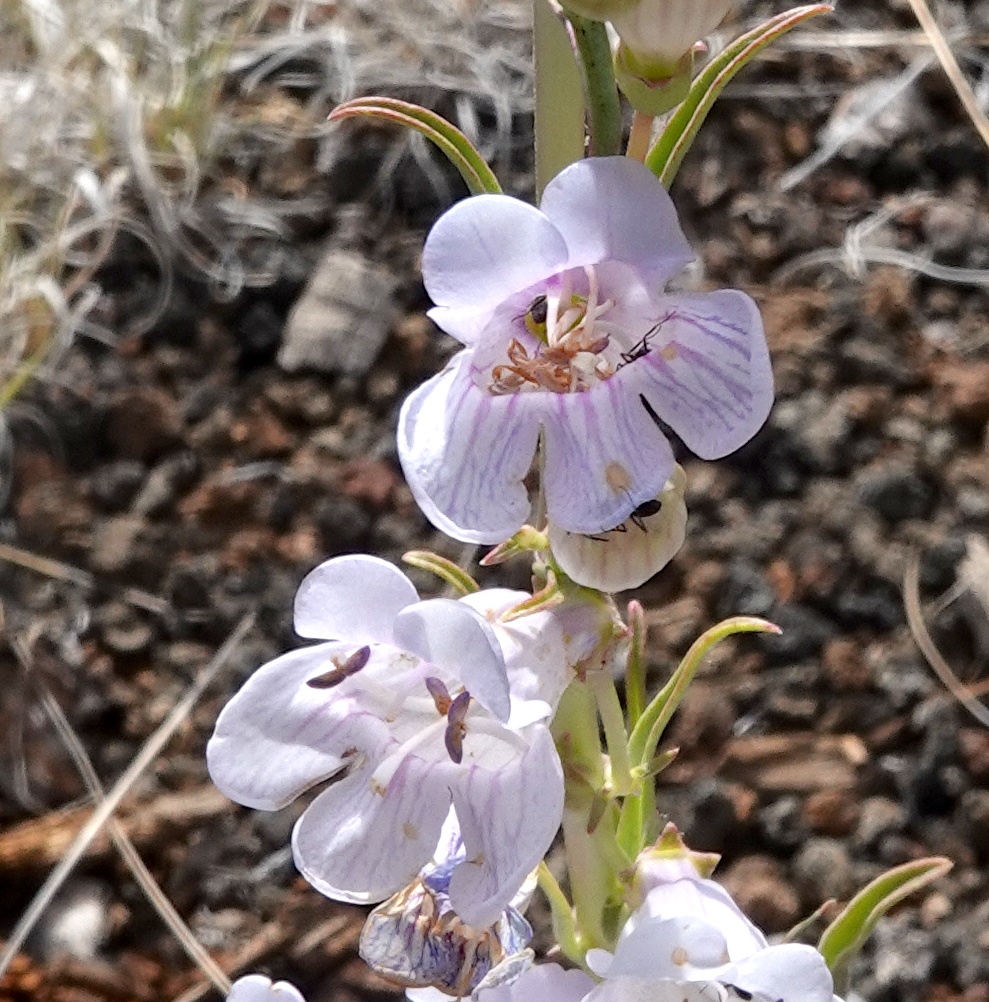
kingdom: Plantae
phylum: Tracheophyta
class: Magnoliopsida
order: Lamiales
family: Plantaginaceae
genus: Penstemon
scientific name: Penstemon virgatus
